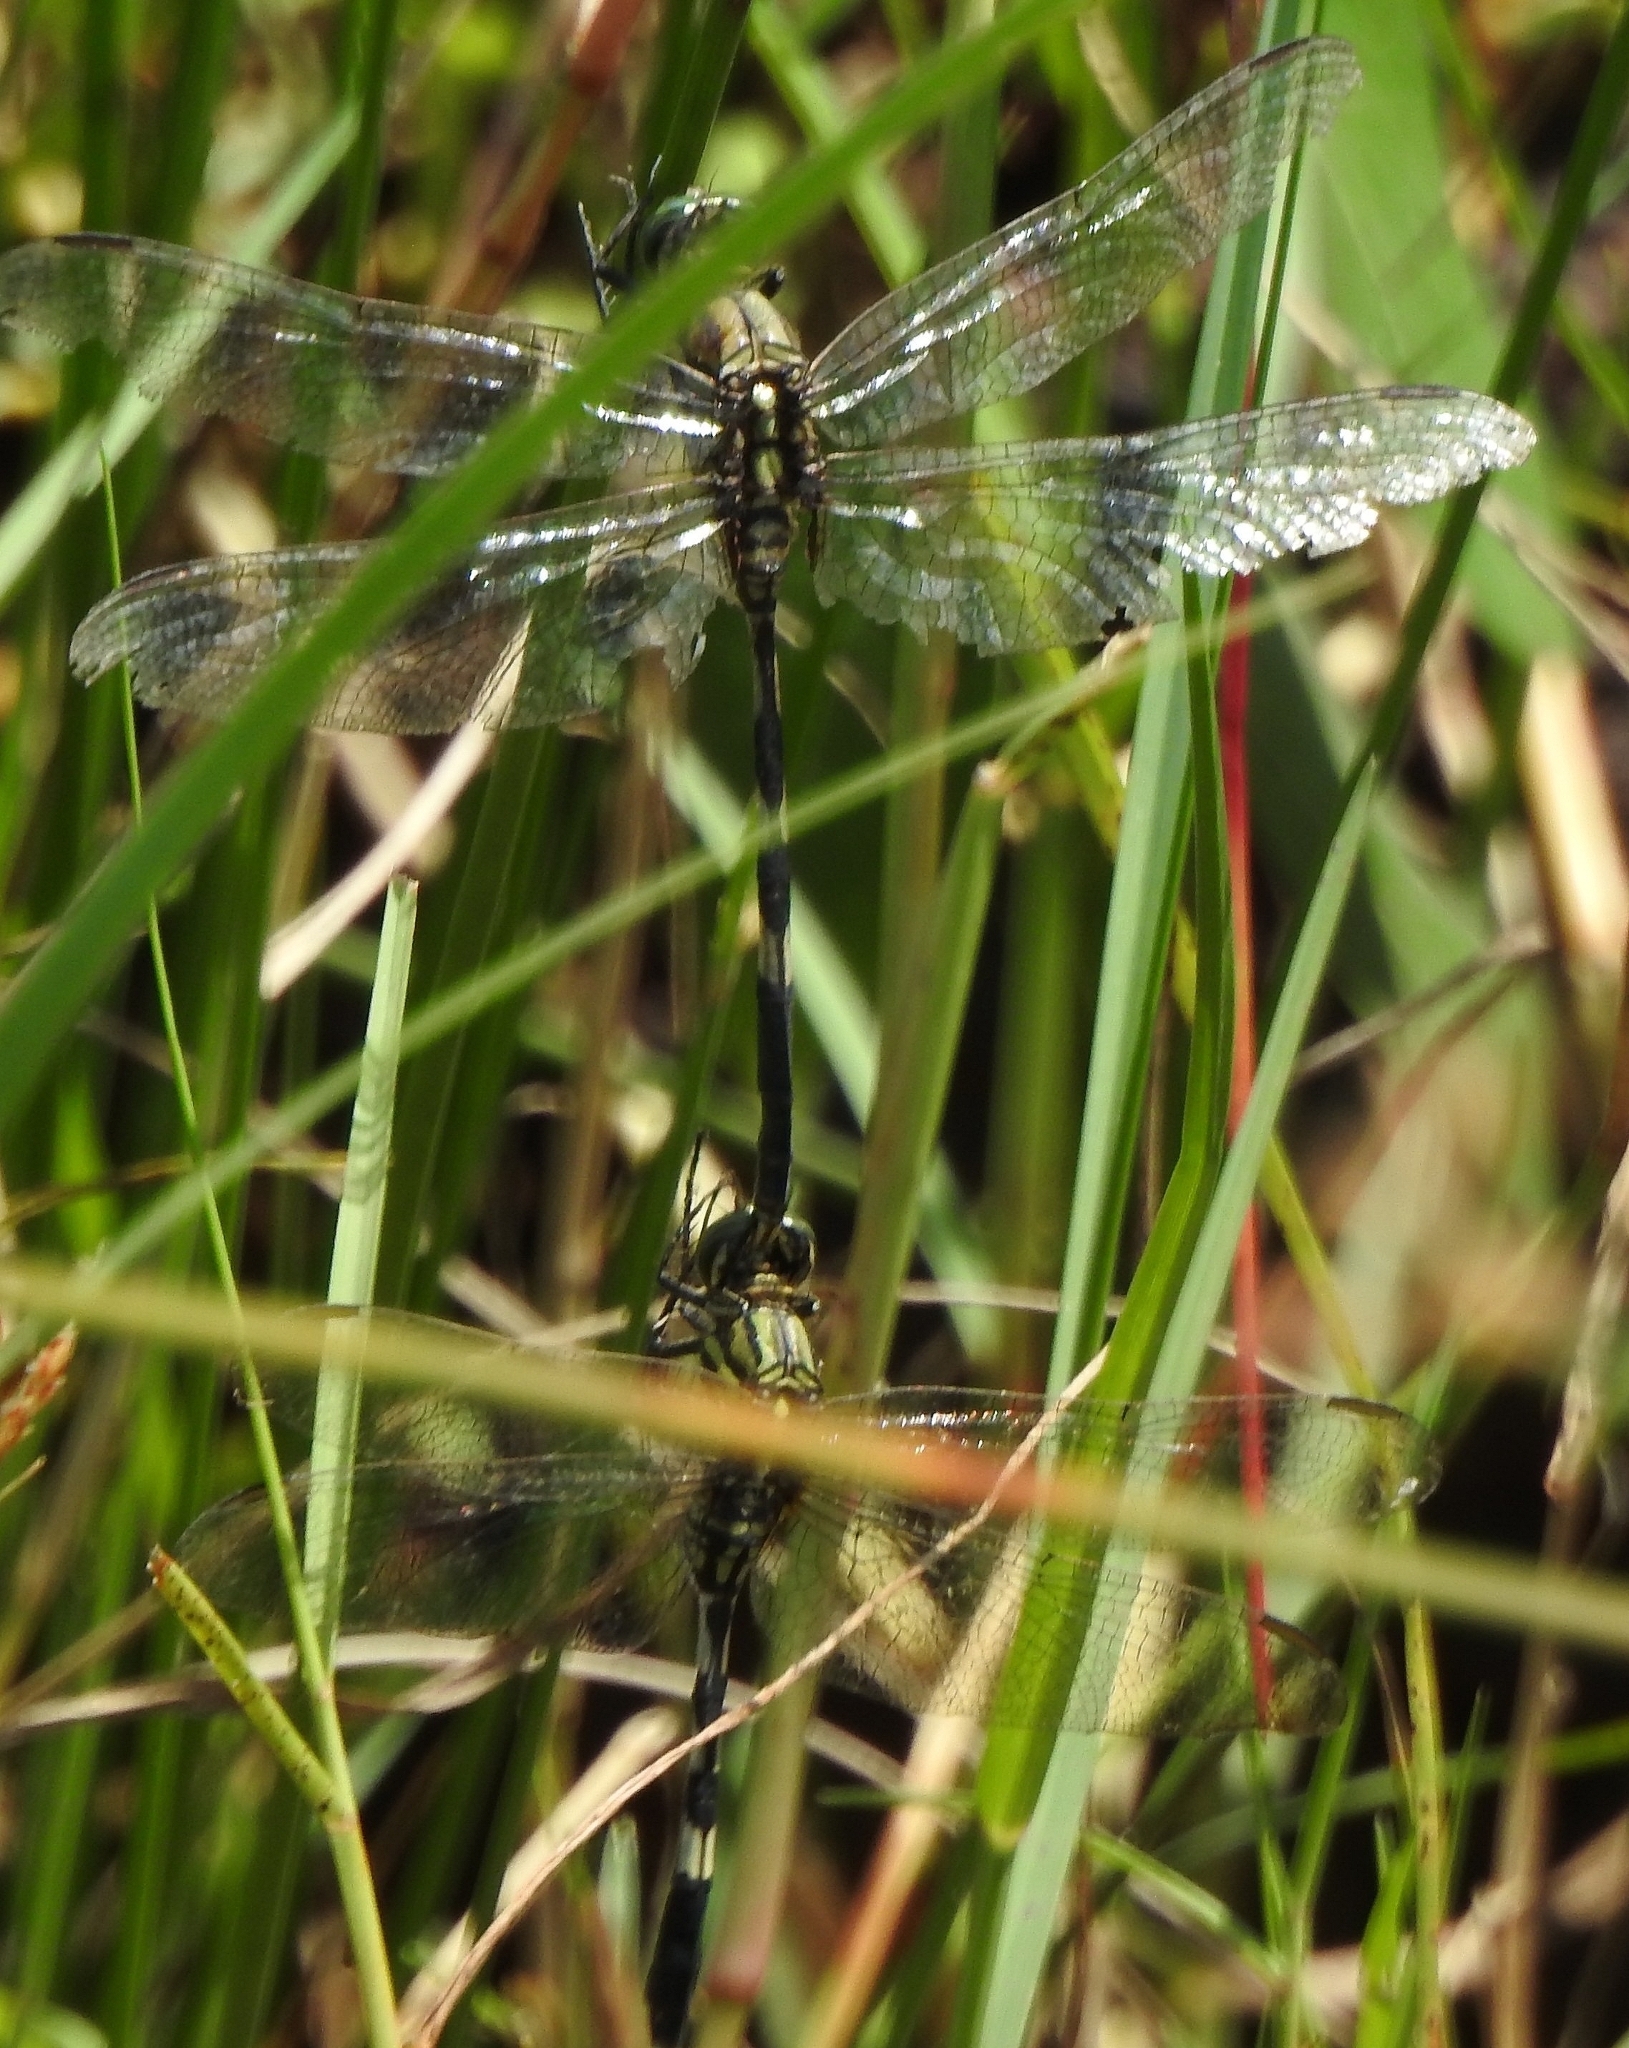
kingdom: Animalia
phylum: Arthropoda
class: Insecta
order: Odonata
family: Libellulidae
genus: Orthetrum
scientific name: Orthetrum sabina
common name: Slender skimmer
